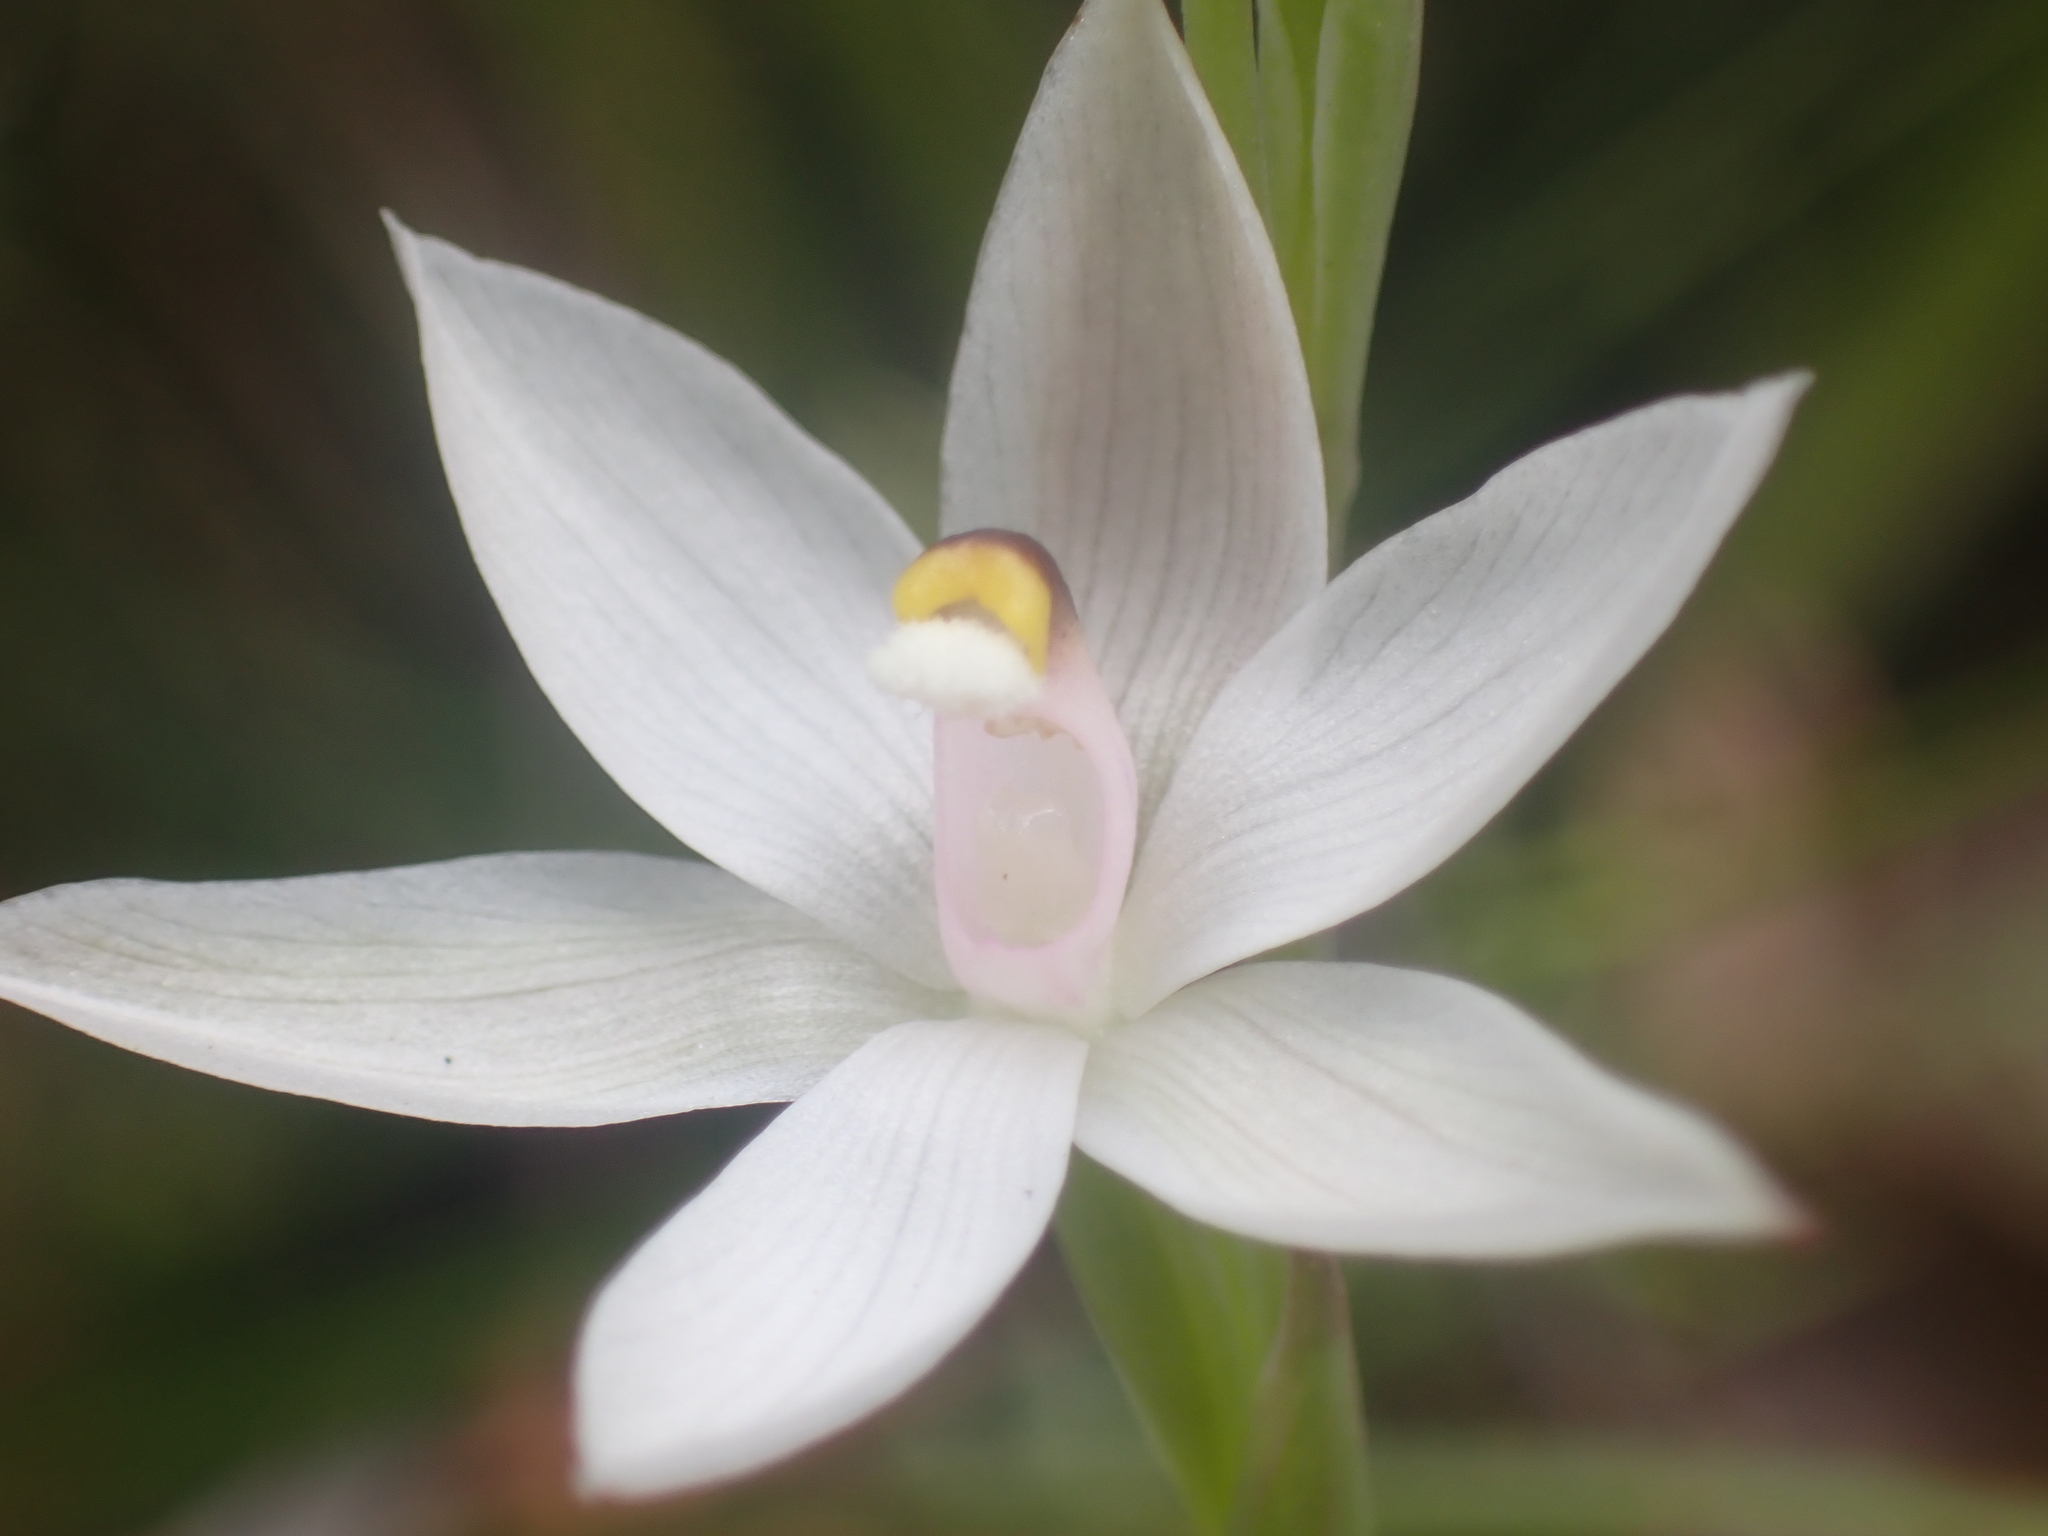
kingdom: Plantae
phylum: Tracheophyta
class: Liliopsida
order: Asparagales
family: Orchidaceae
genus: Thelymitra
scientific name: Thelymitra longifolia
